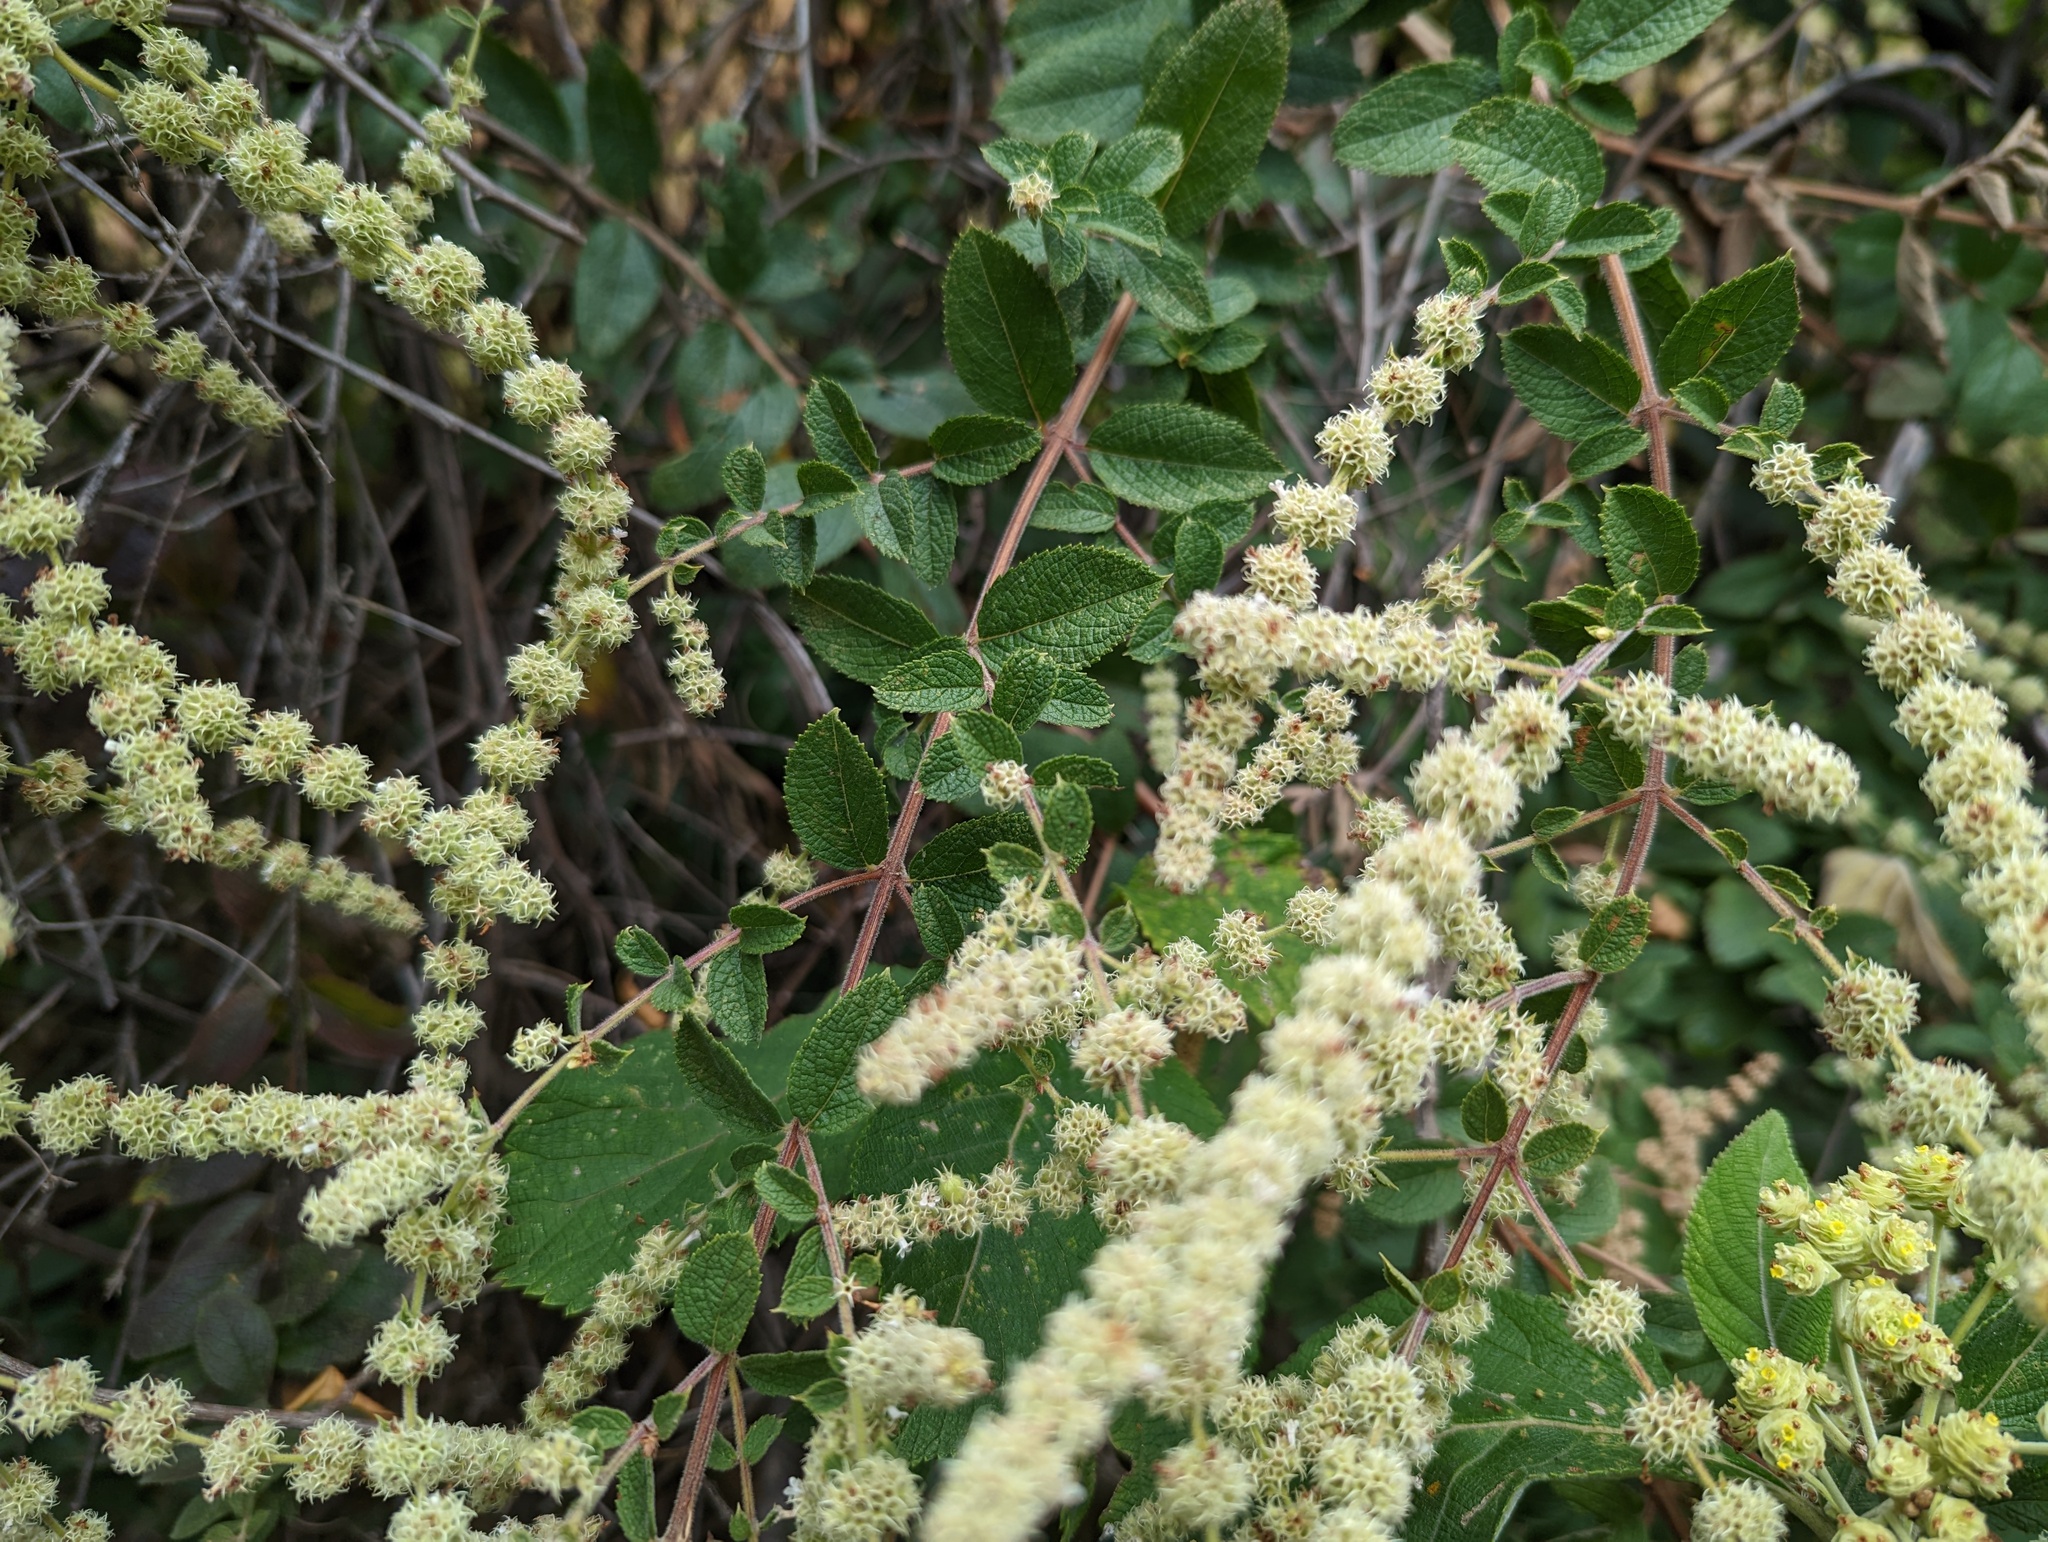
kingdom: Plantae
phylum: Tracheophyta
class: Magnoliopsida
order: Lamiales
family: Lamiaceae
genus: Asterohyptis
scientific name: Asterohyptis stellulata
